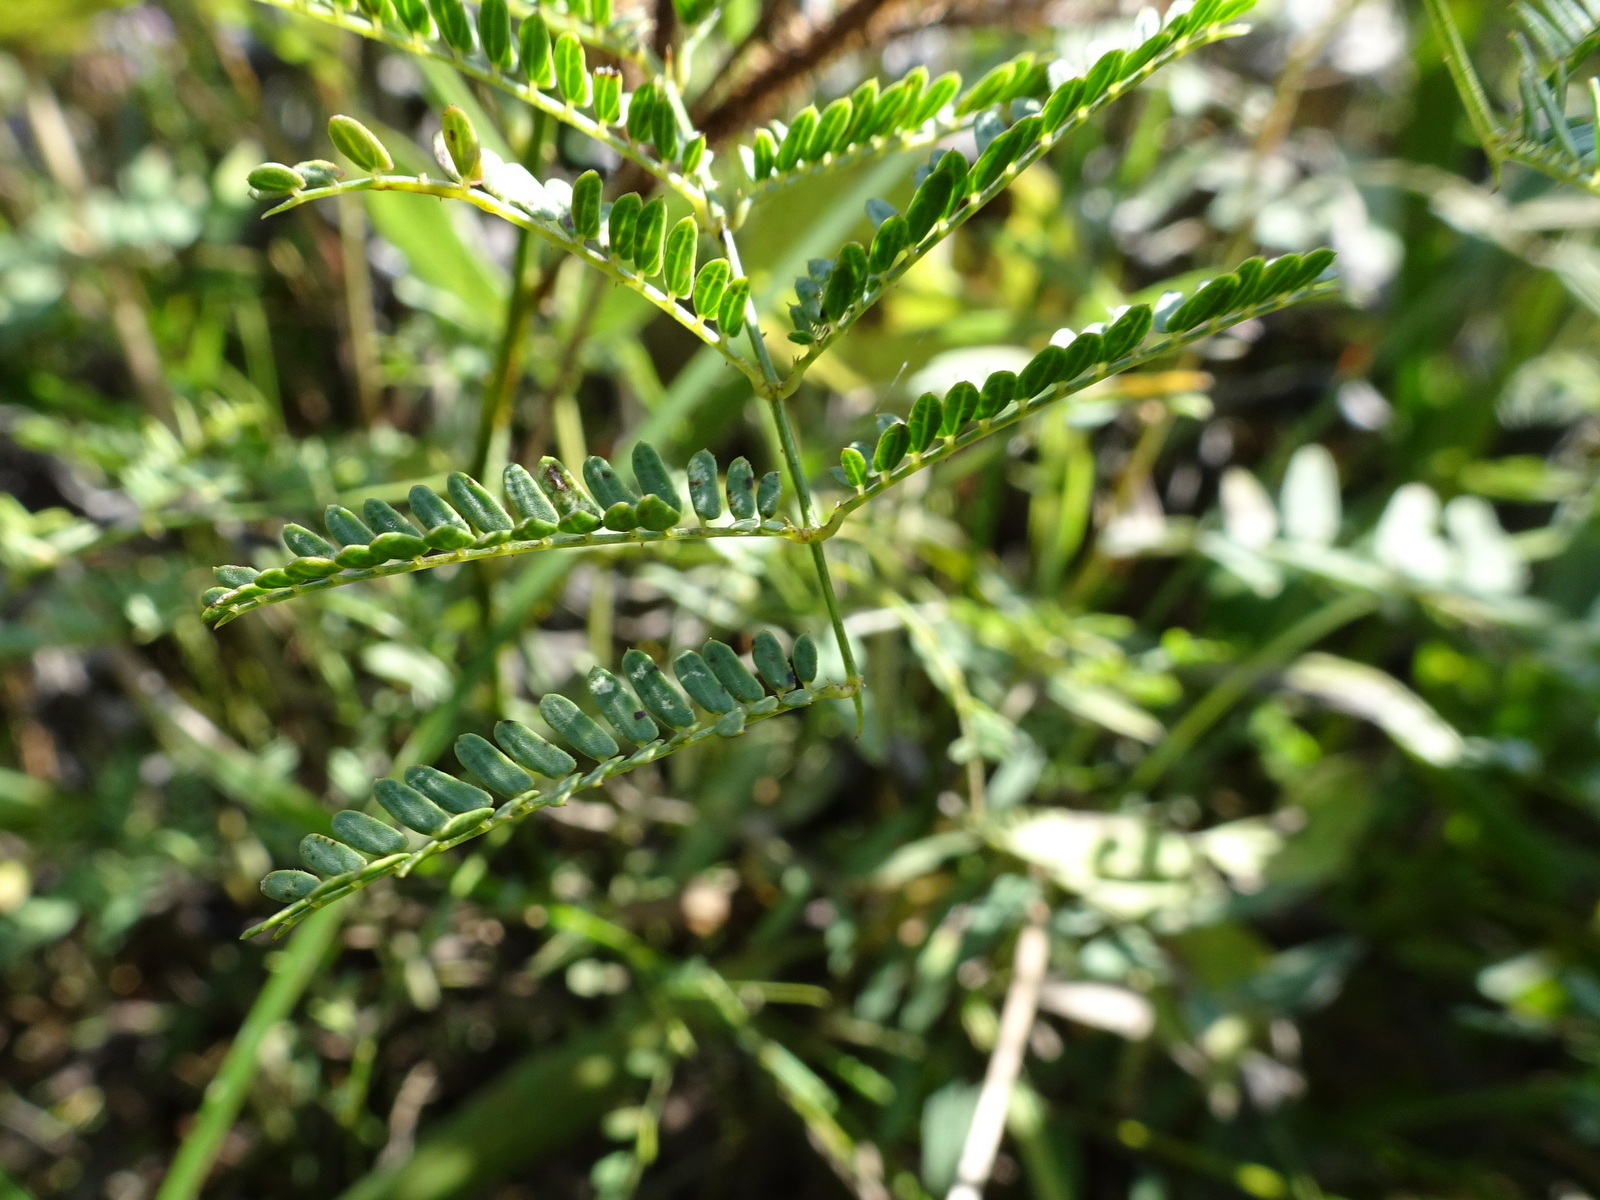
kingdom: Plantae
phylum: Tracheophyta
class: Magnoliopsida
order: Fabales
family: Fabaceae
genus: Mimosa
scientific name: Mimosa quadrivalvis
